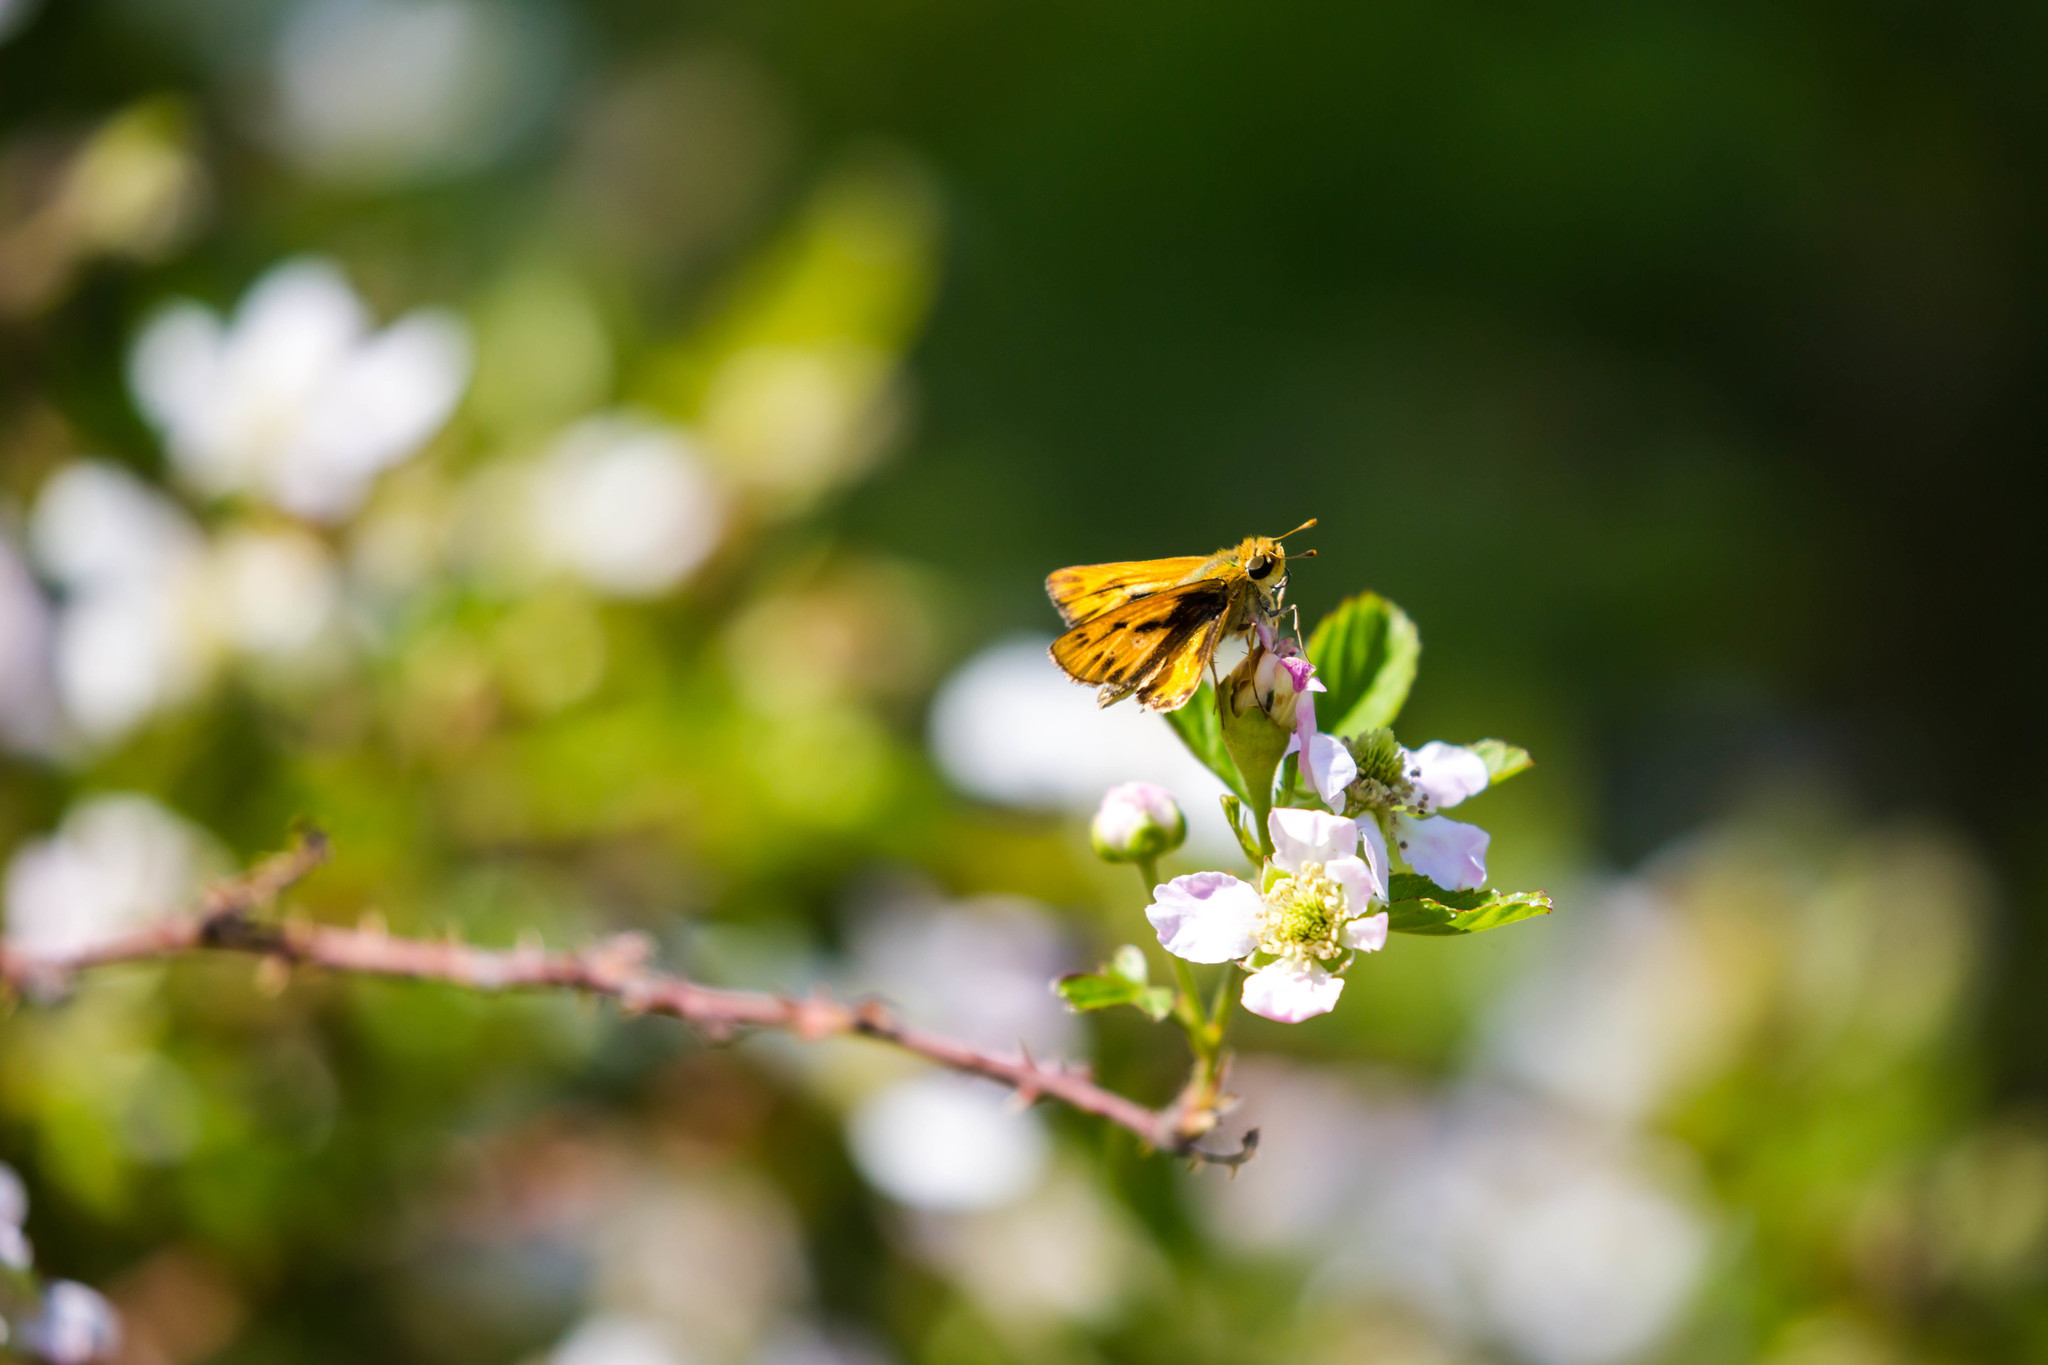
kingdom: Animalia
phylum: Arthropoda
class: Insecta
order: Lepidoptera
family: Hesperiidae
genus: Hylephila
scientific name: Hylephila phyleus
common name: Fiery skipper
